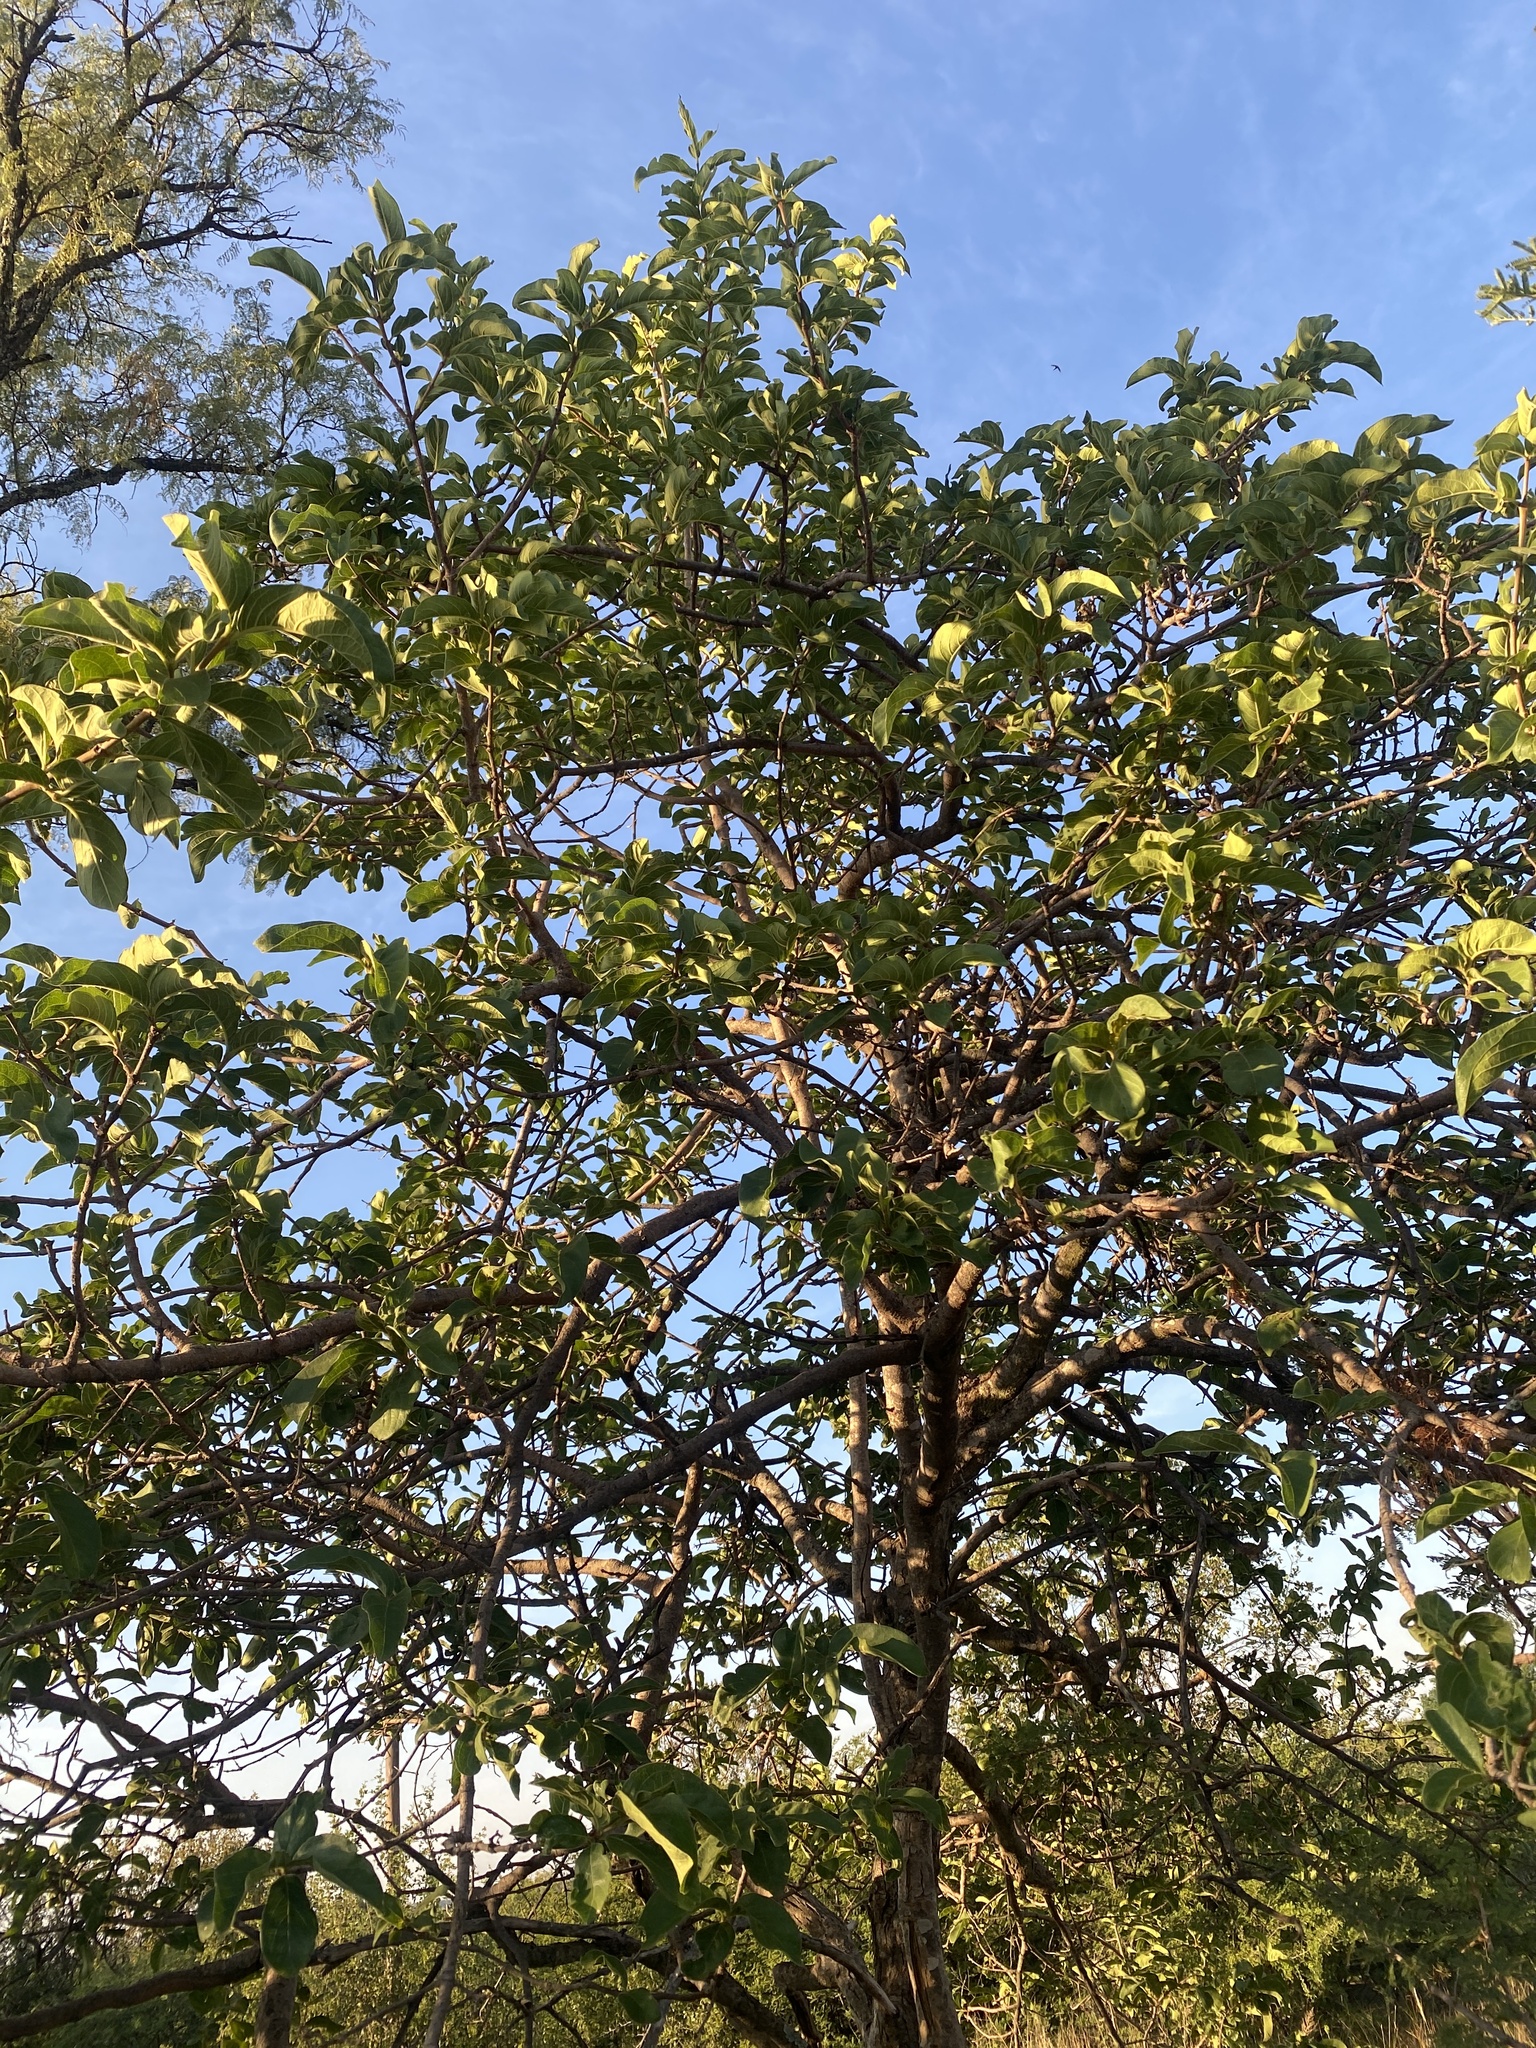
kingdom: Plantae
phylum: Tracheophyta
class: Magnoliopsida
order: Gentianales
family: Rubiaceae
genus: Vangueria
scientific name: Vangueria infausta
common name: Medlar
